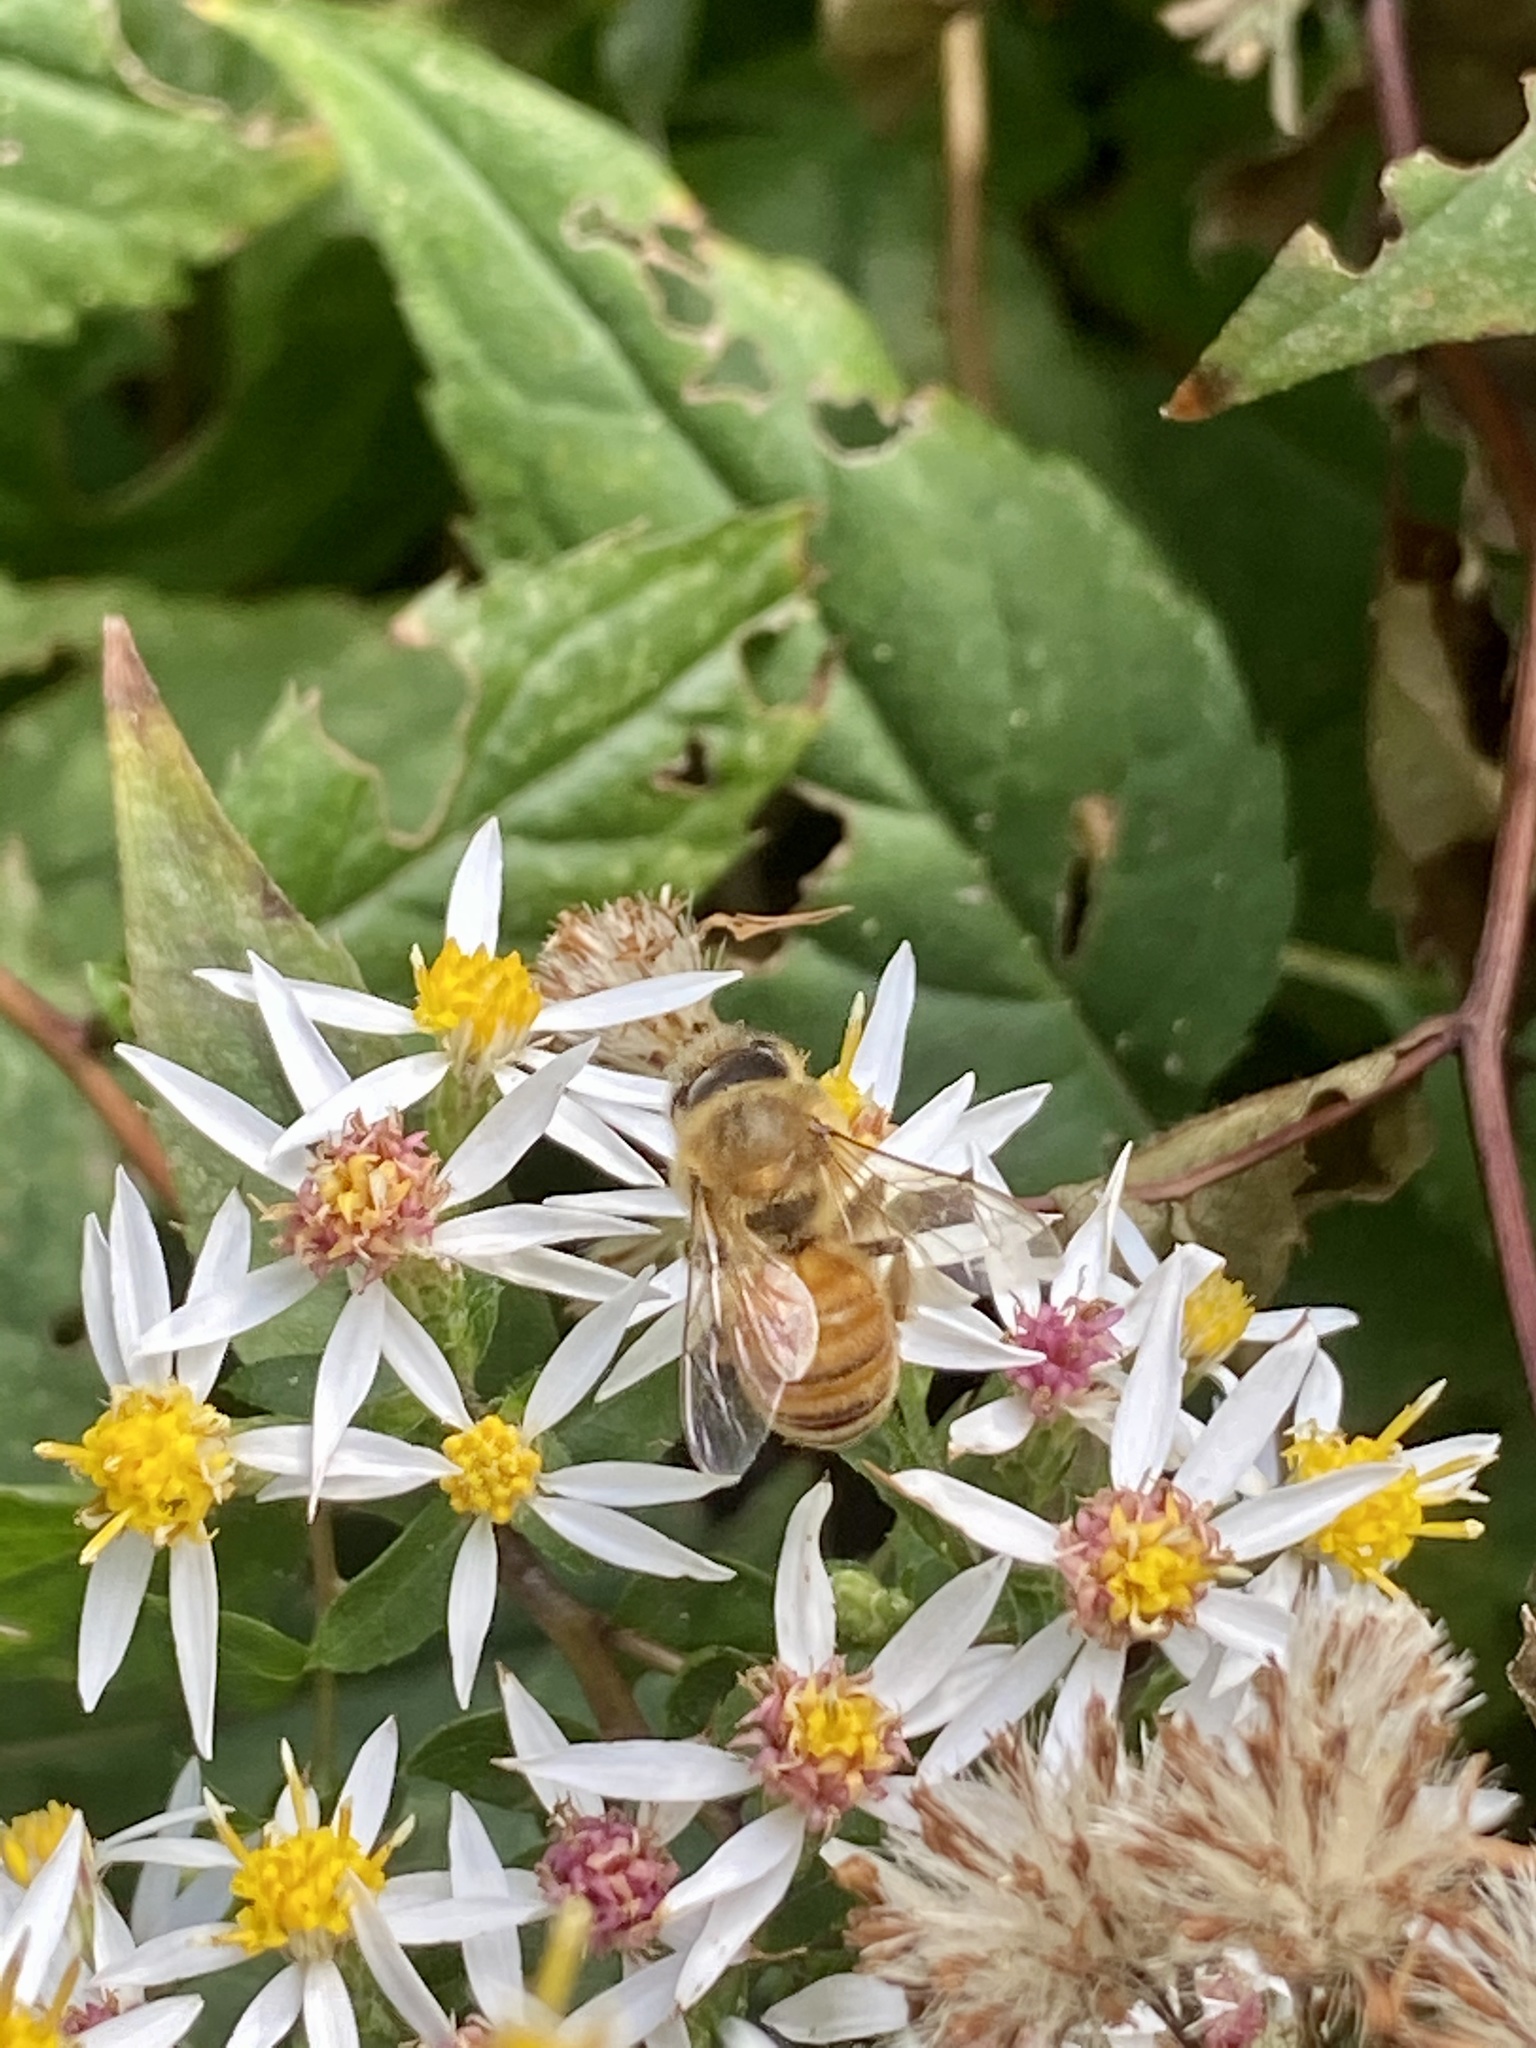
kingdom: Animalia
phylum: Arthropoda
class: Insecta
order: Hymenoptera
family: Apidae
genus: Apis
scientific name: Apis mellifera
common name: Honey bee
